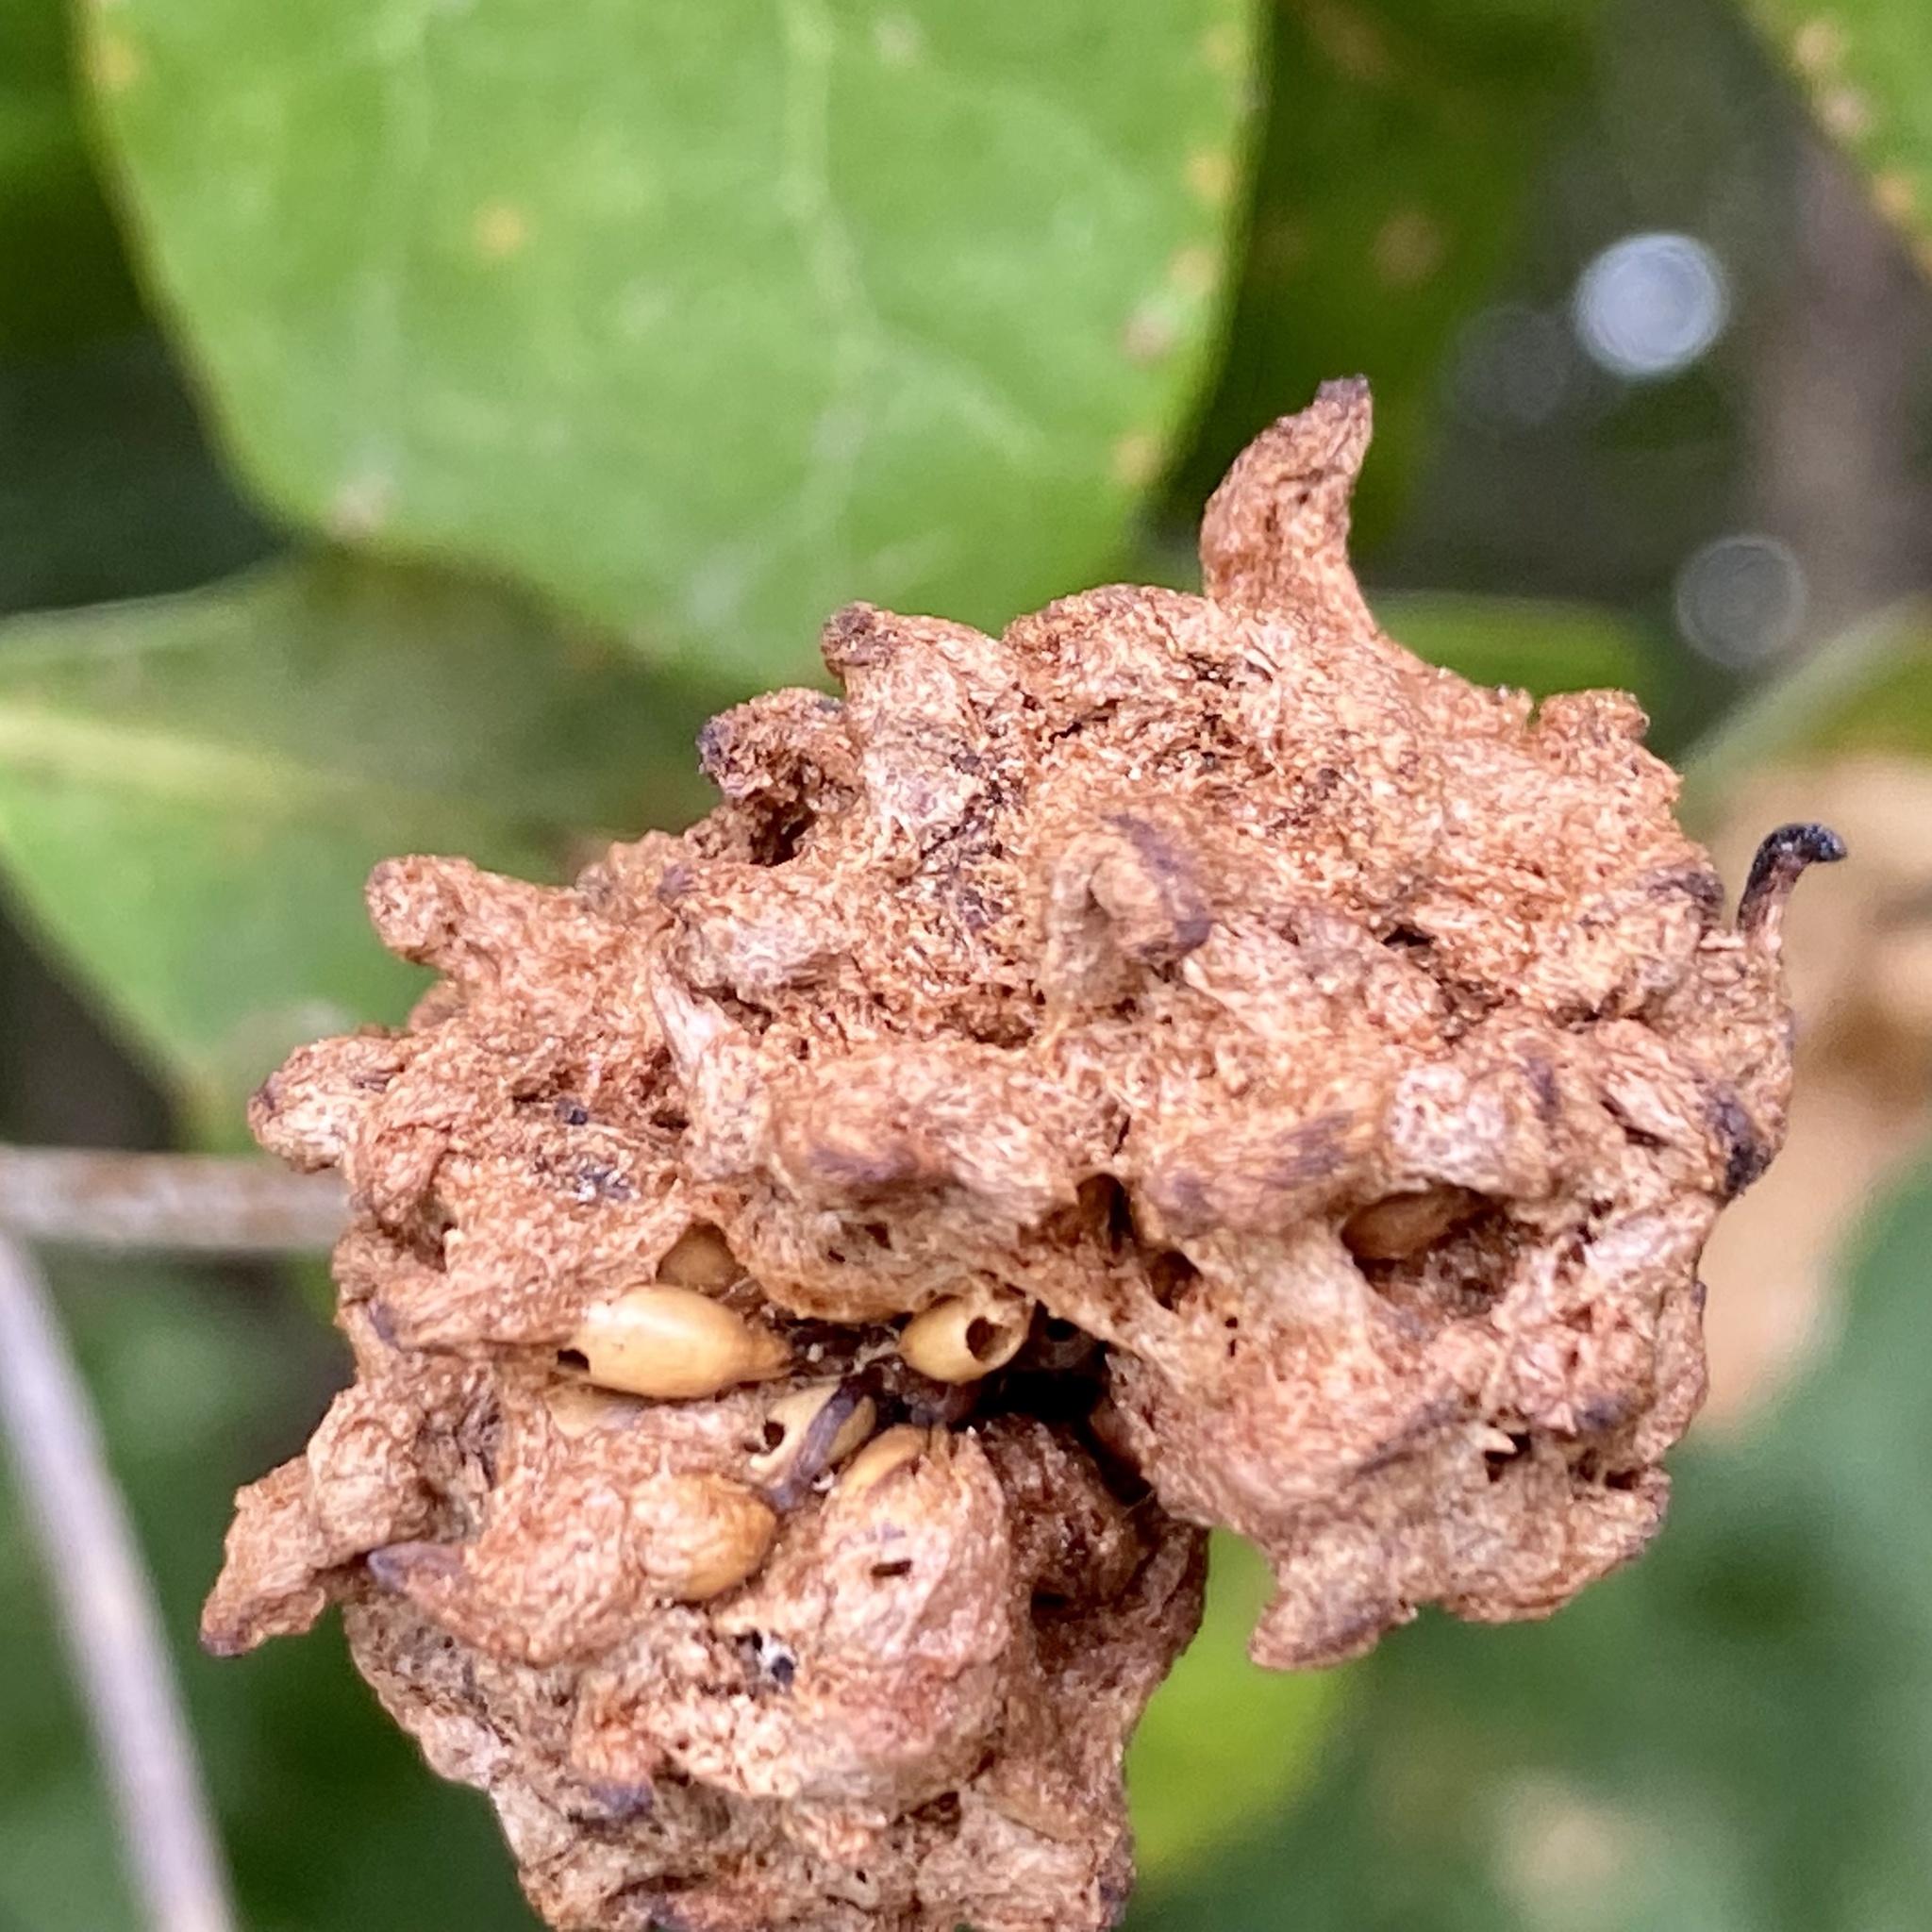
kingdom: Animalia
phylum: Arthropoda
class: Insecta
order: Hymenoptera
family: Cynipidae
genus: Callirhytis
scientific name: Callirhytis
